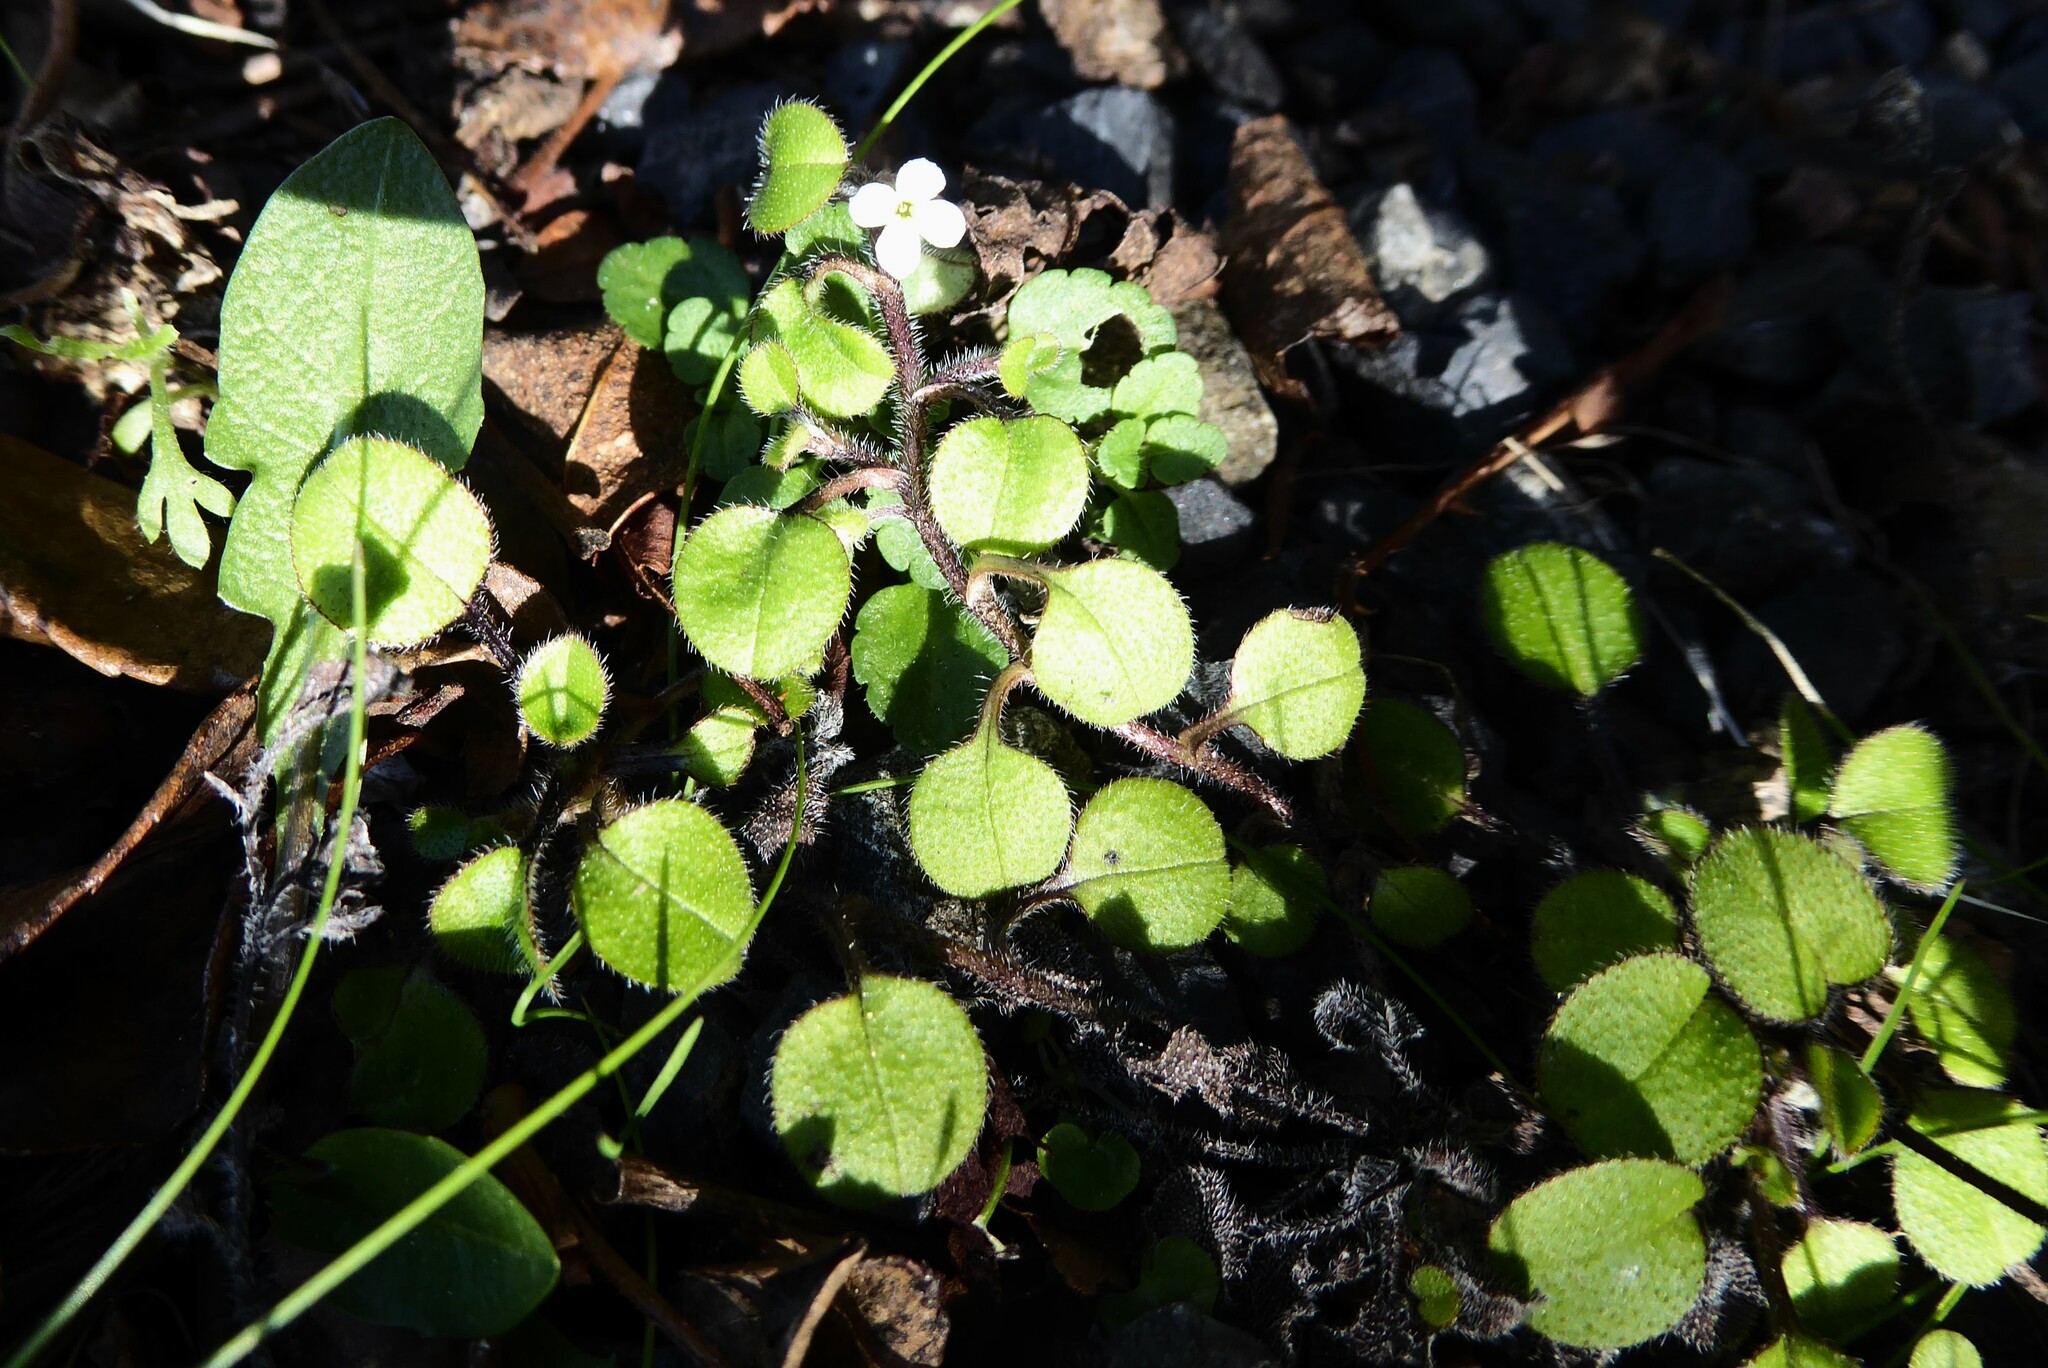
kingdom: Plantae
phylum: Tracheophyta
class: Magnoliopsida
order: Boraginales
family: Boraginaceae
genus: Myosotis
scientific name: Myosotis spathulata
